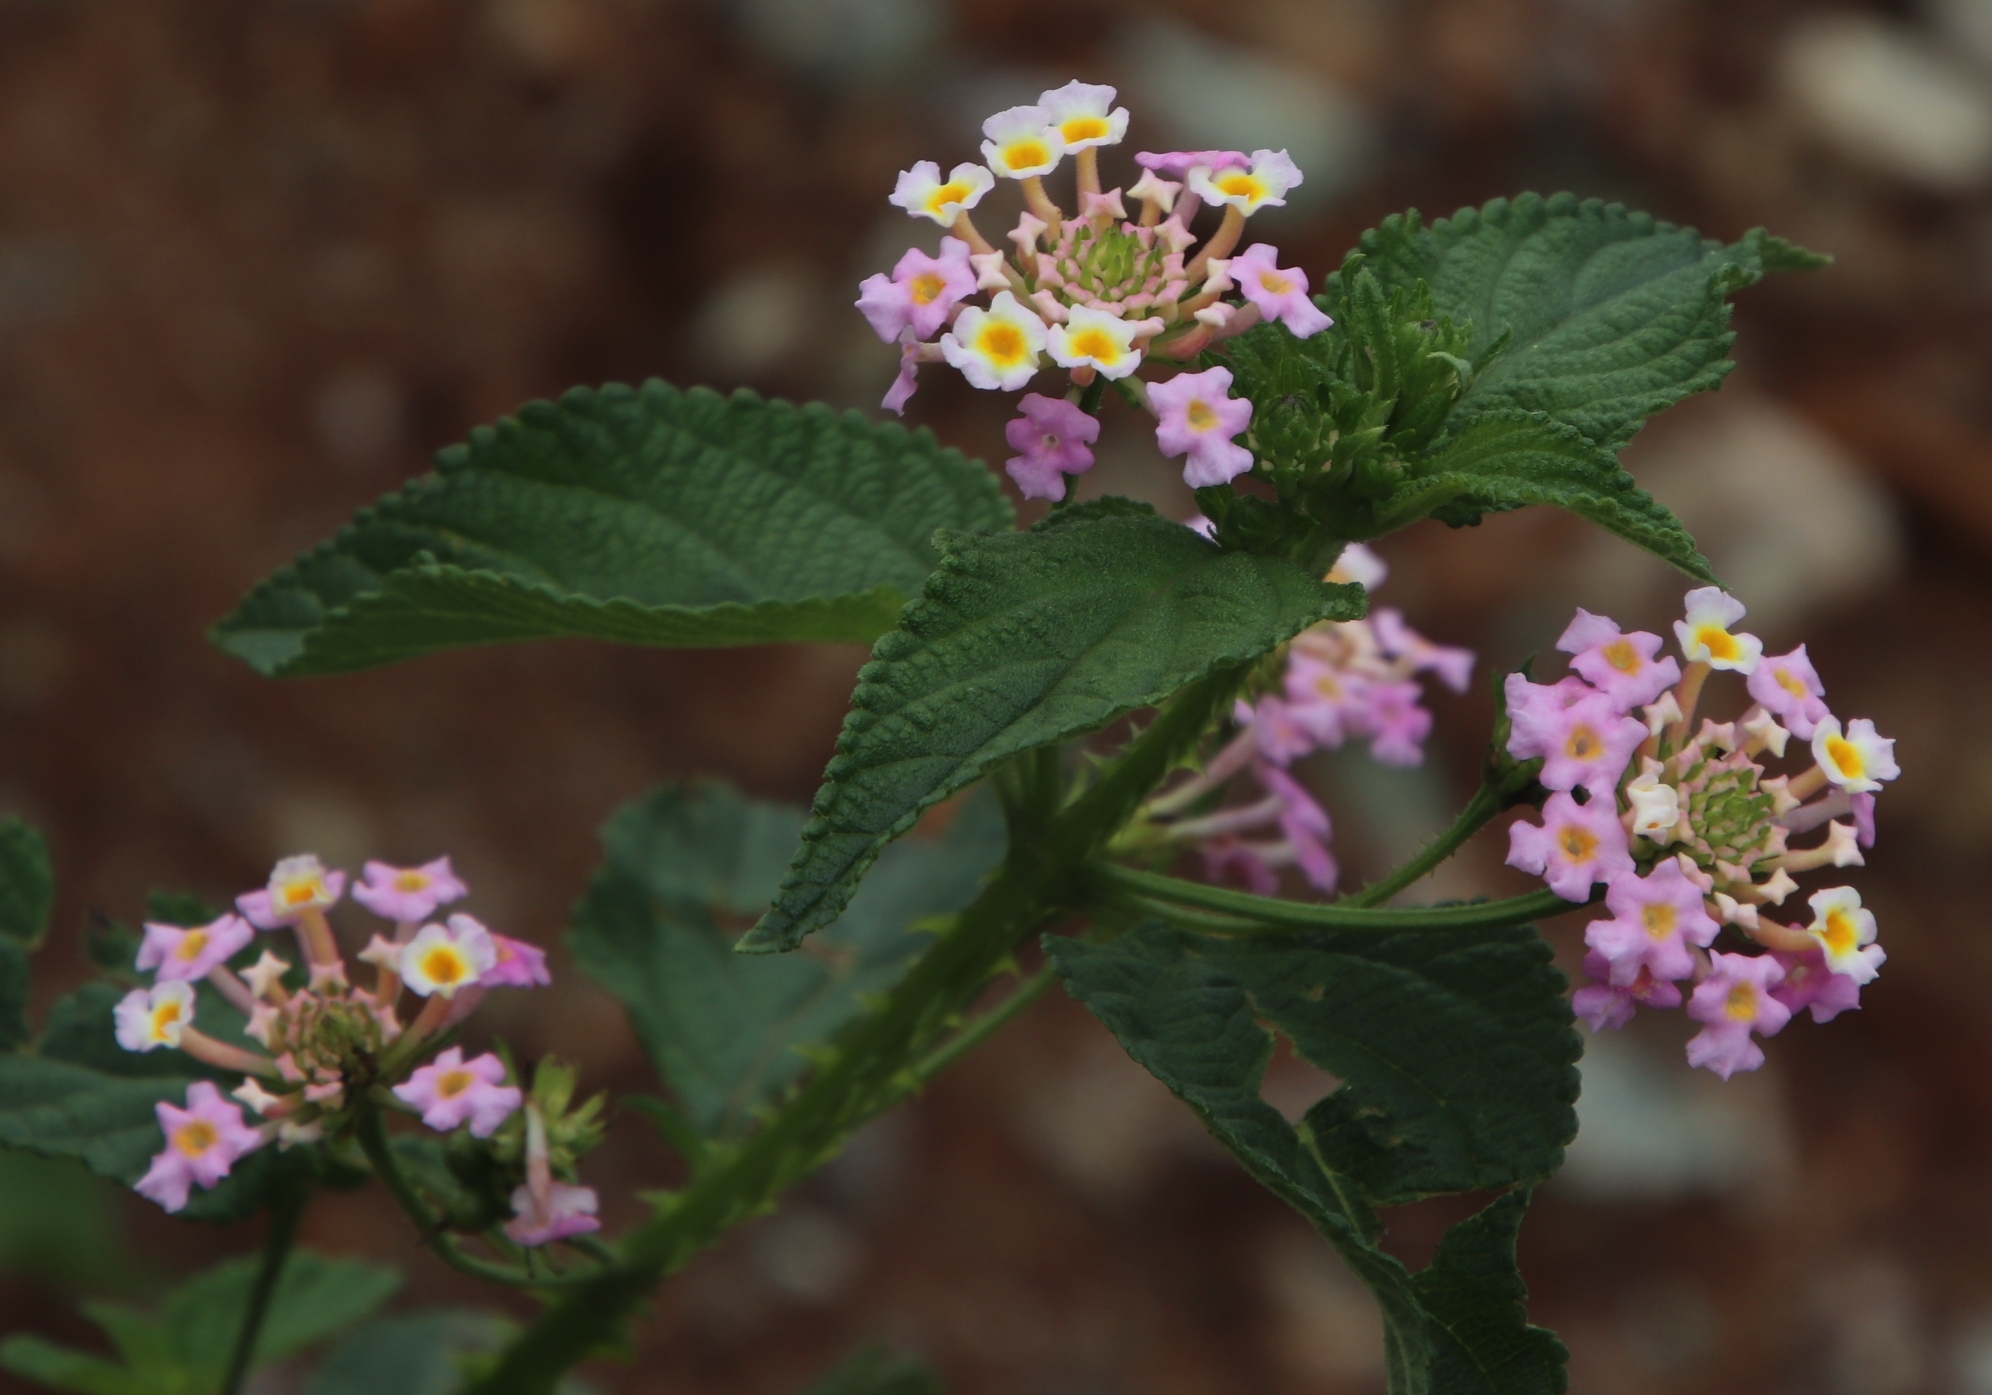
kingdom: Plantae
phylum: Tracheophyta
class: Magnoliopsida
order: Lamiales
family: Verbenaceae
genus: Lantana
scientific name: Lantana camara
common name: Lantana
